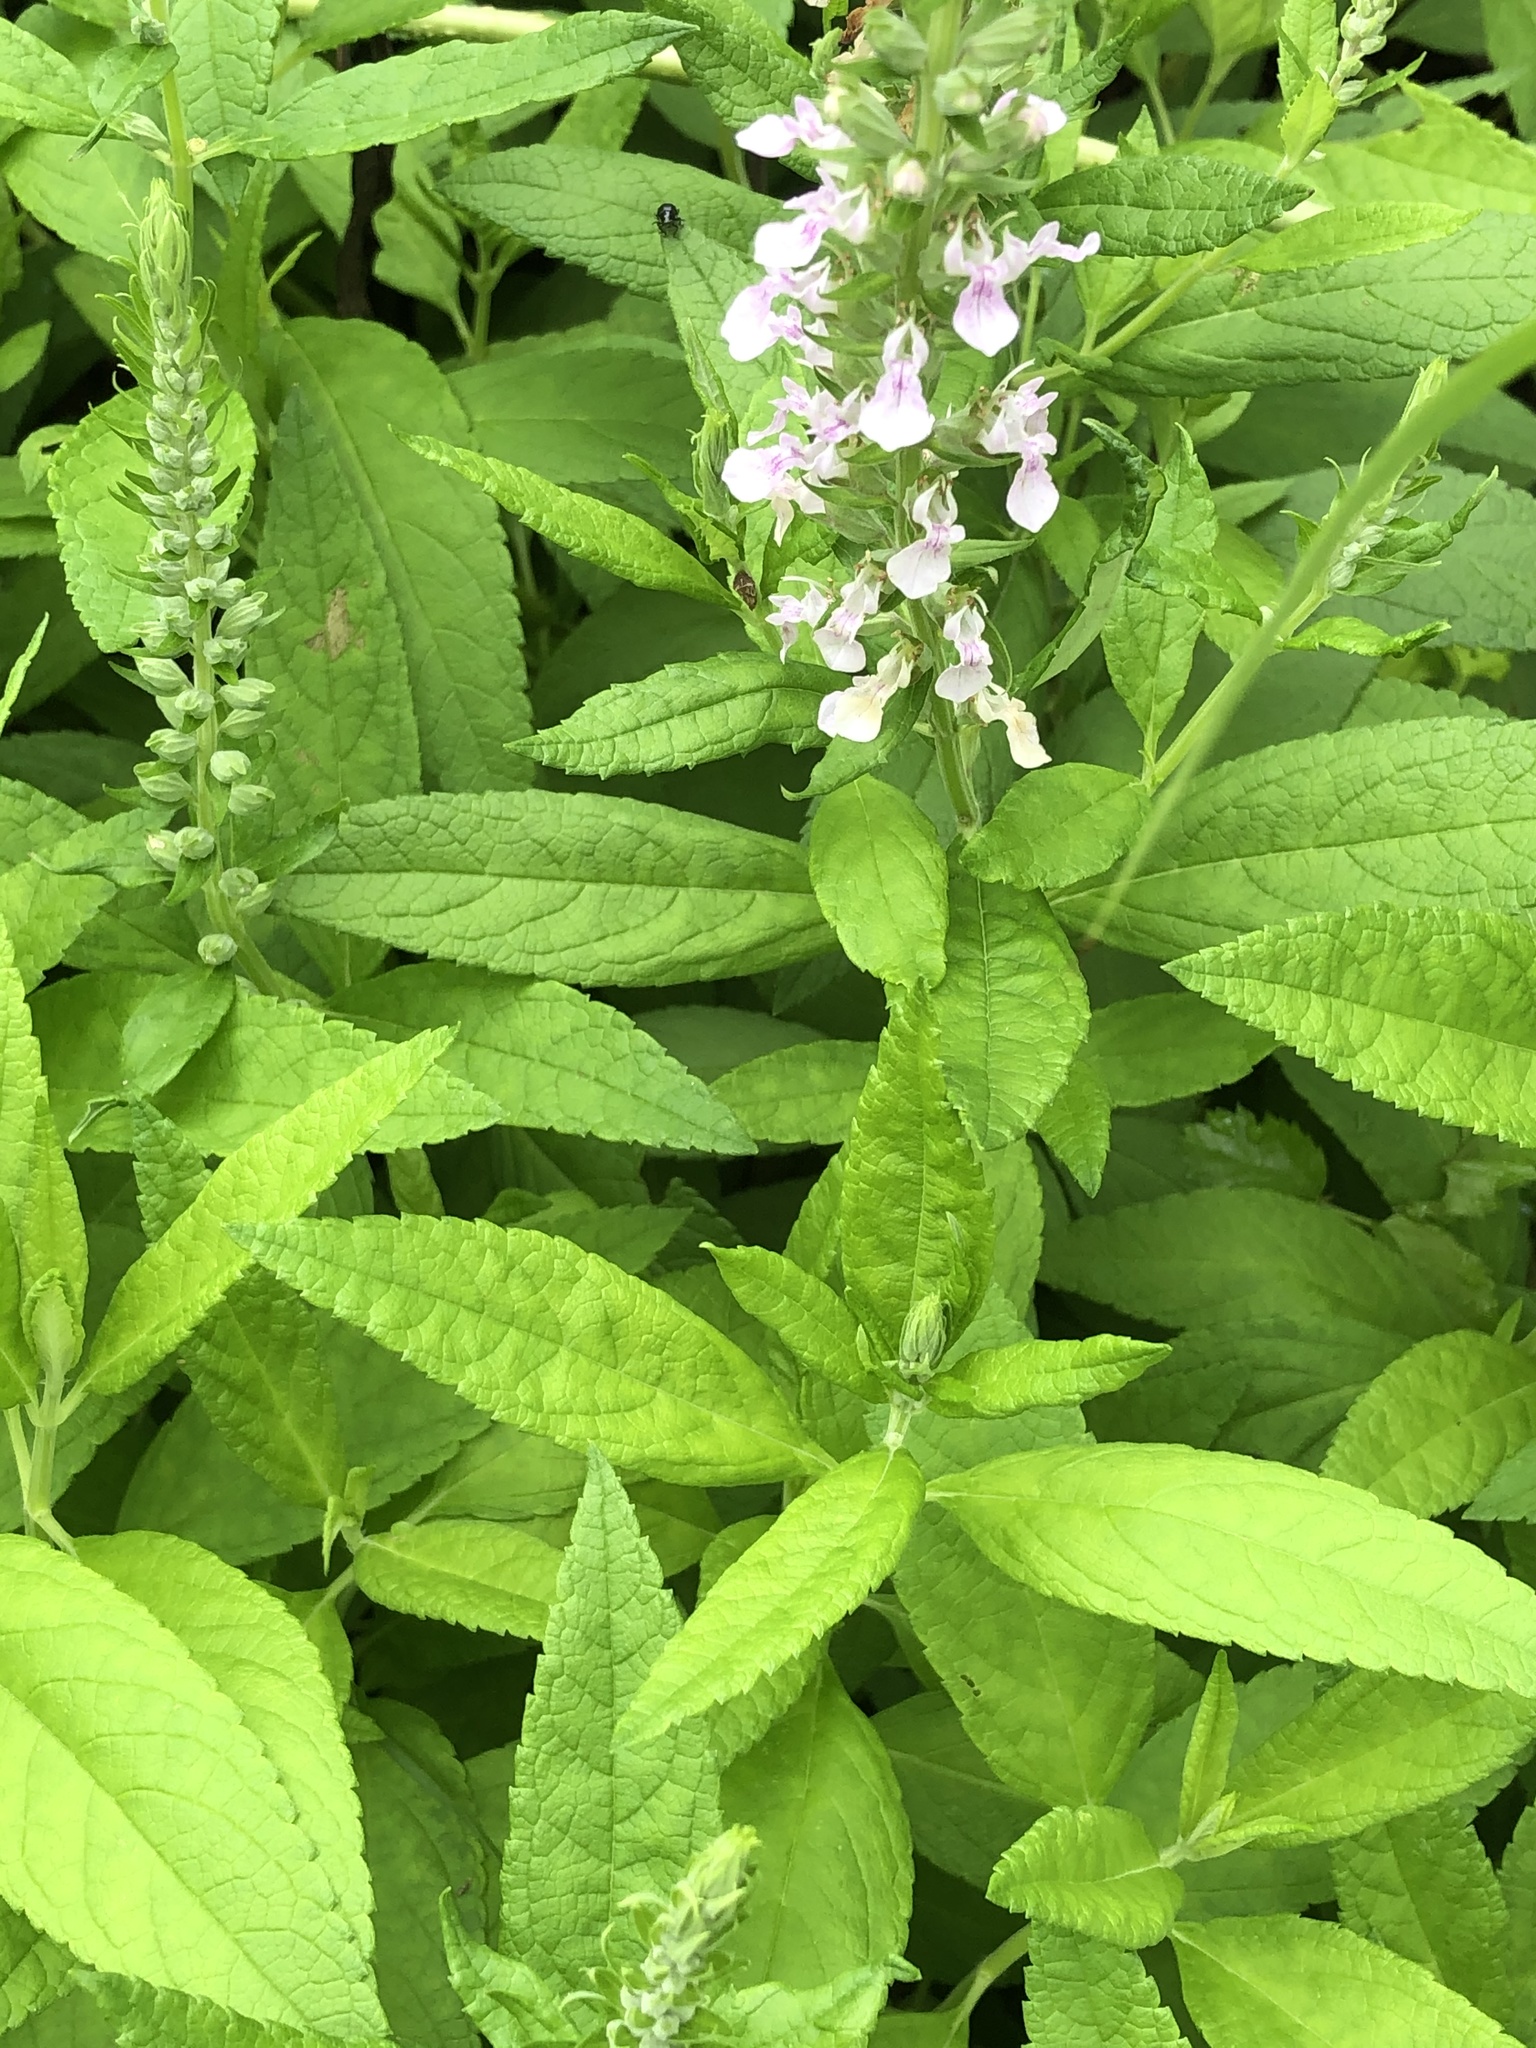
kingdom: Plantae
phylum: Tracheophyta
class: Magnoliopsida
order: Lamiales
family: Lamiaceae
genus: Teucrium
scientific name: Teucrium canadense
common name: American germander
